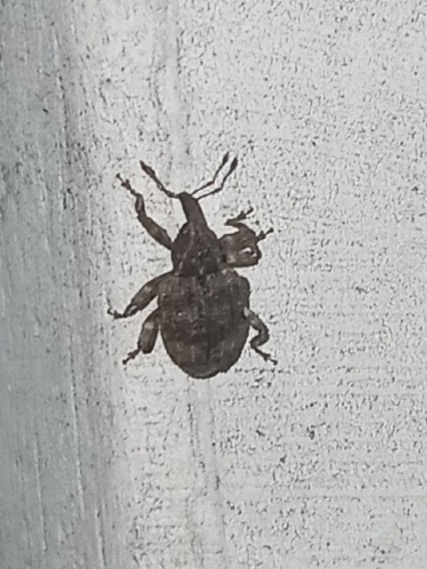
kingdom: Animalia
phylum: Arthropoda
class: Insecta
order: Coleoptera
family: Curculionidae
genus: Conotrachelus
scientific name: Conotrachelus seniculus
